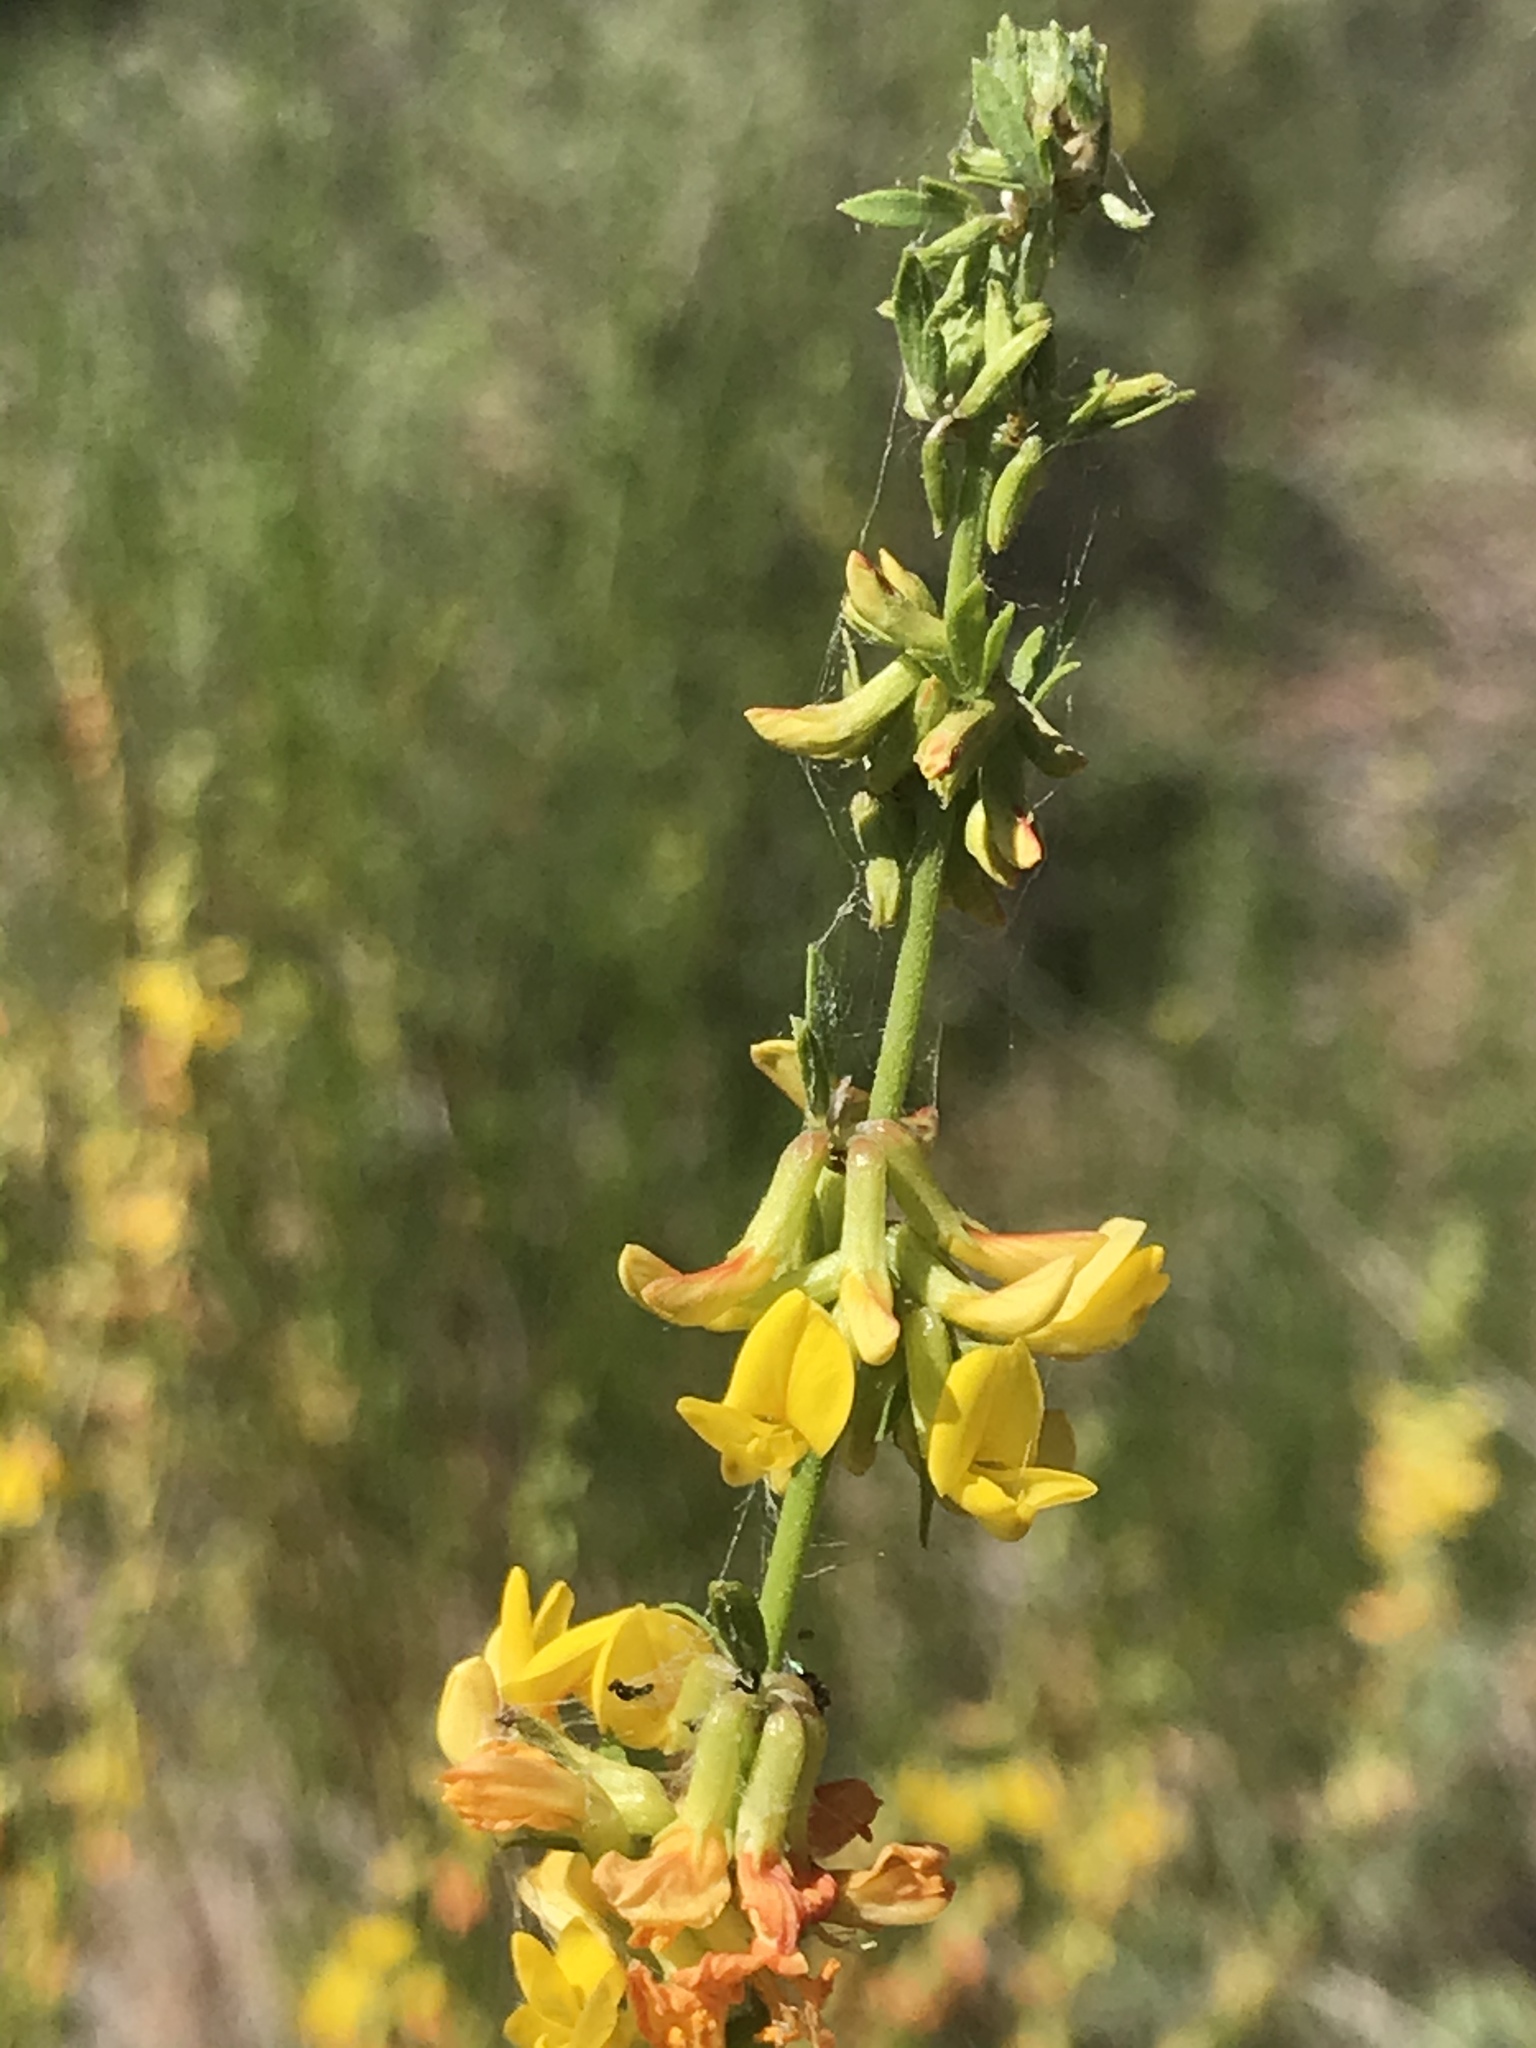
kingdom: Plantae
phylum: Tracheophyta
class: Magnoliopsida
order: Fabales
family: Fabaceae
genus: Acmispon
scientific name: Acmispon glaber
